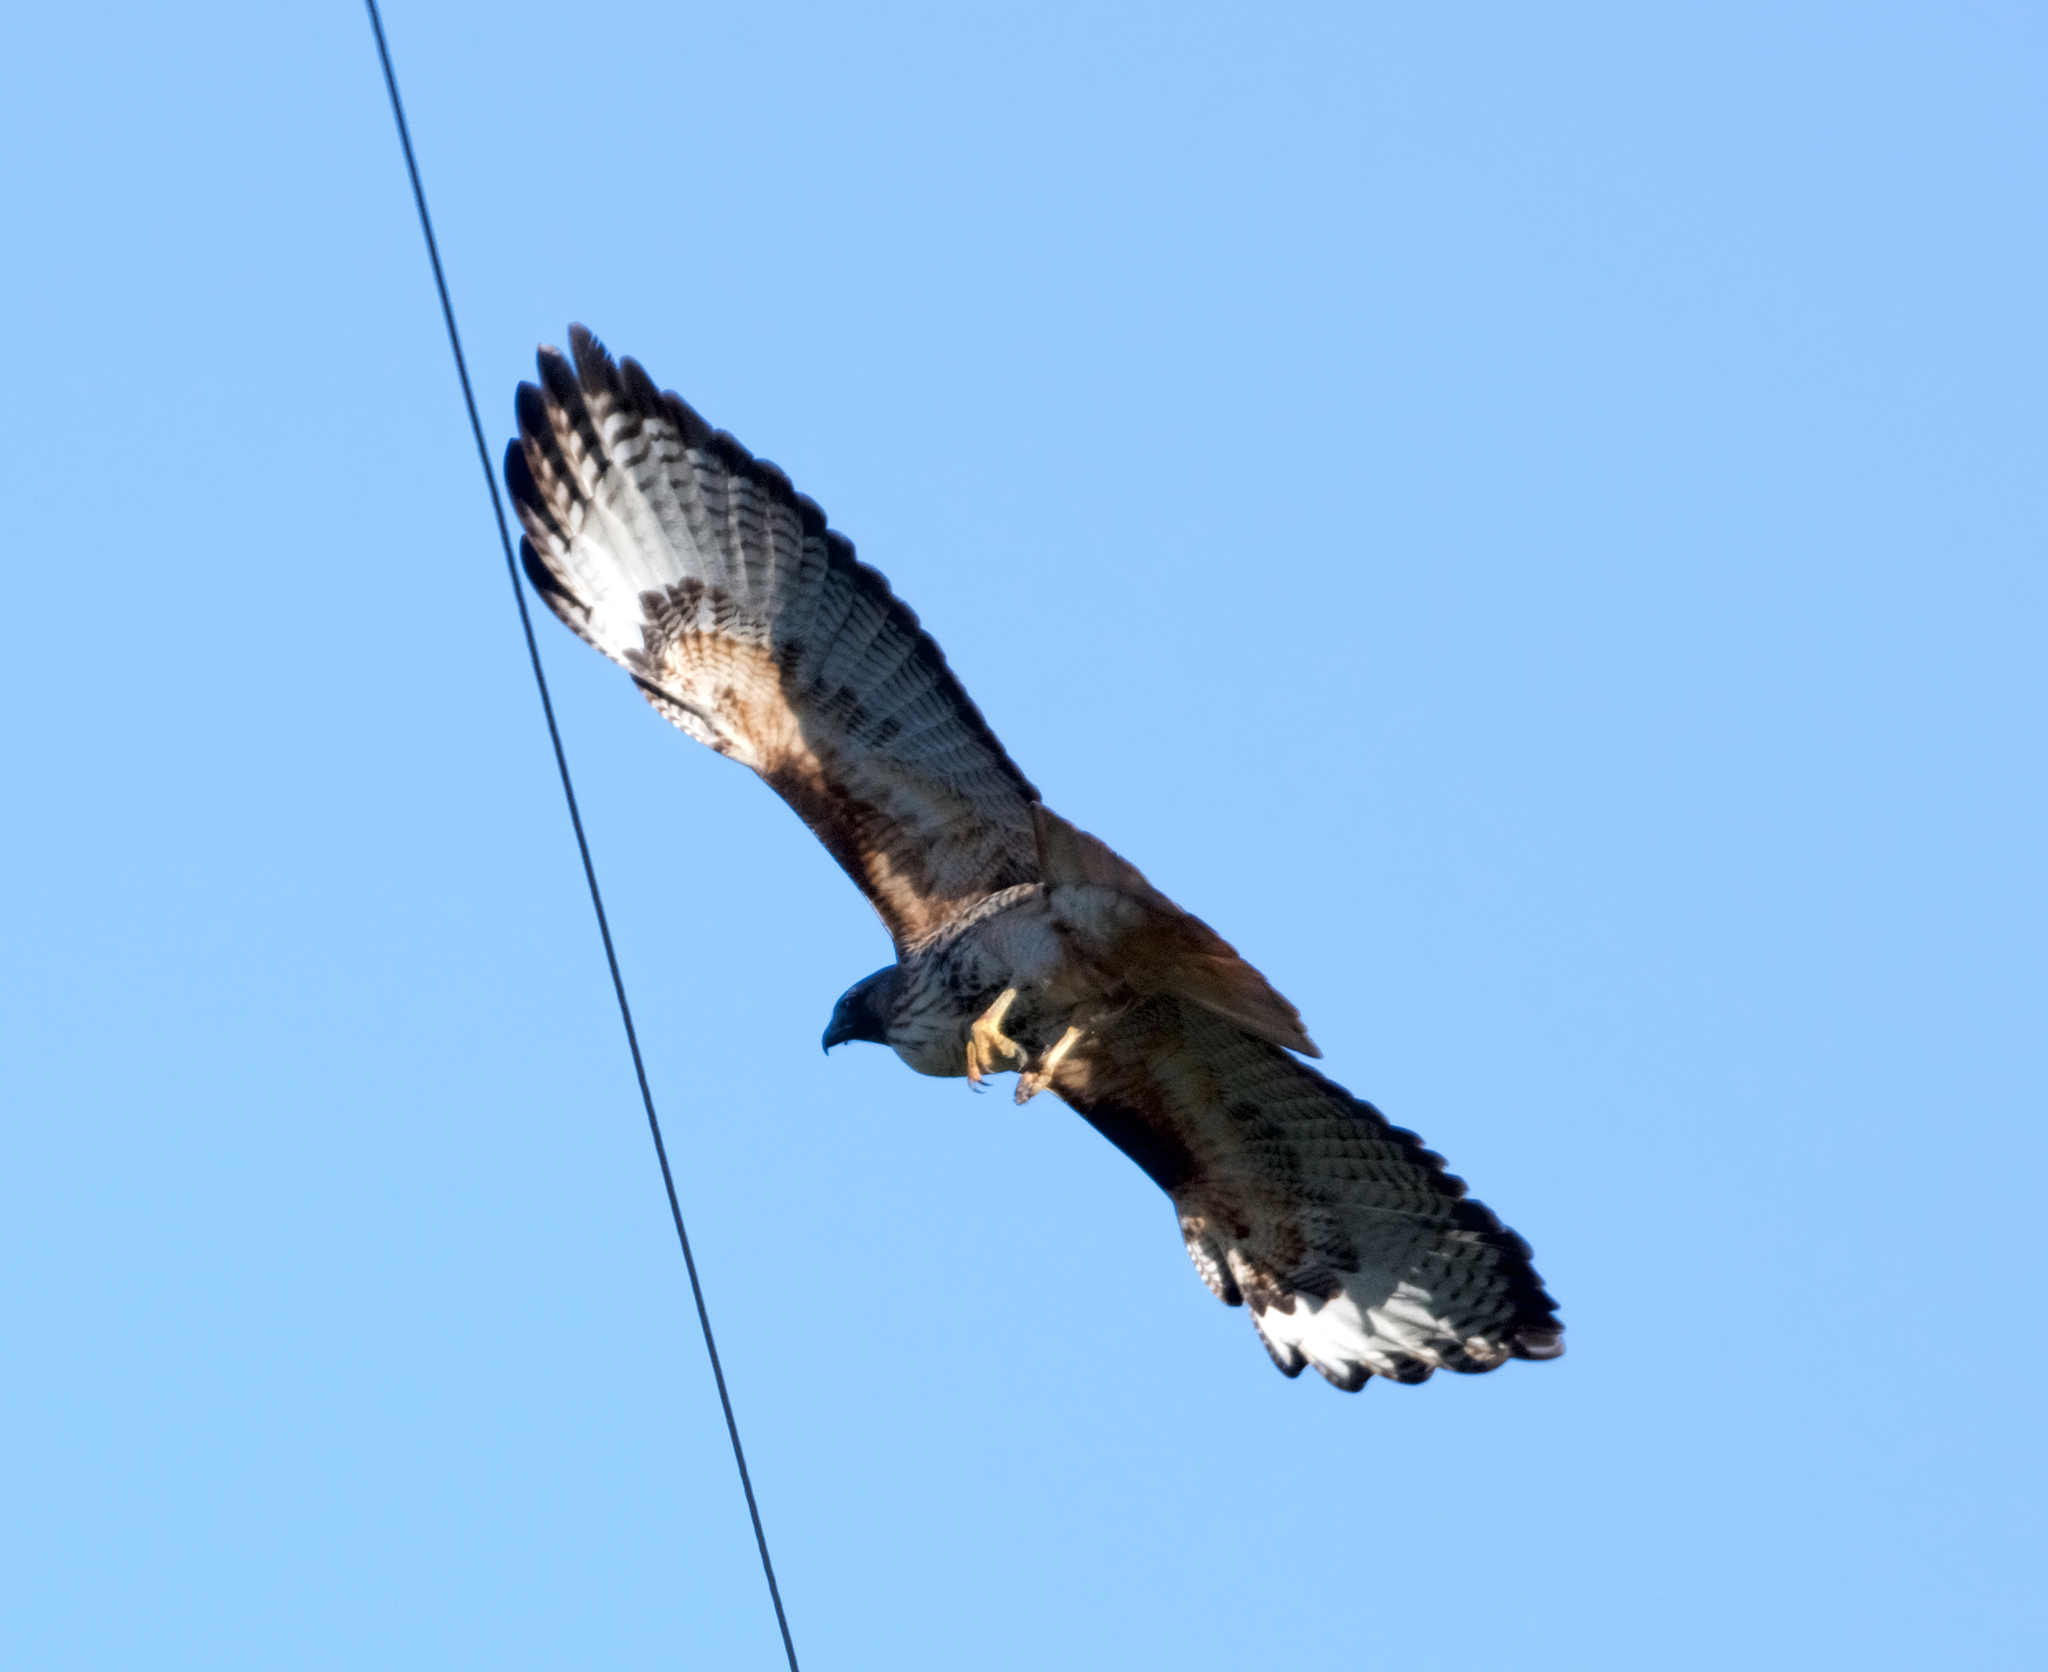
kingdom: Animalia
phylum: Chordata
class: Aves
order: Accipitriformes
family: Accipitridae
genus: Buteo
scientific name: Buteo jamaicensis
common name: Red-tailed hawk
